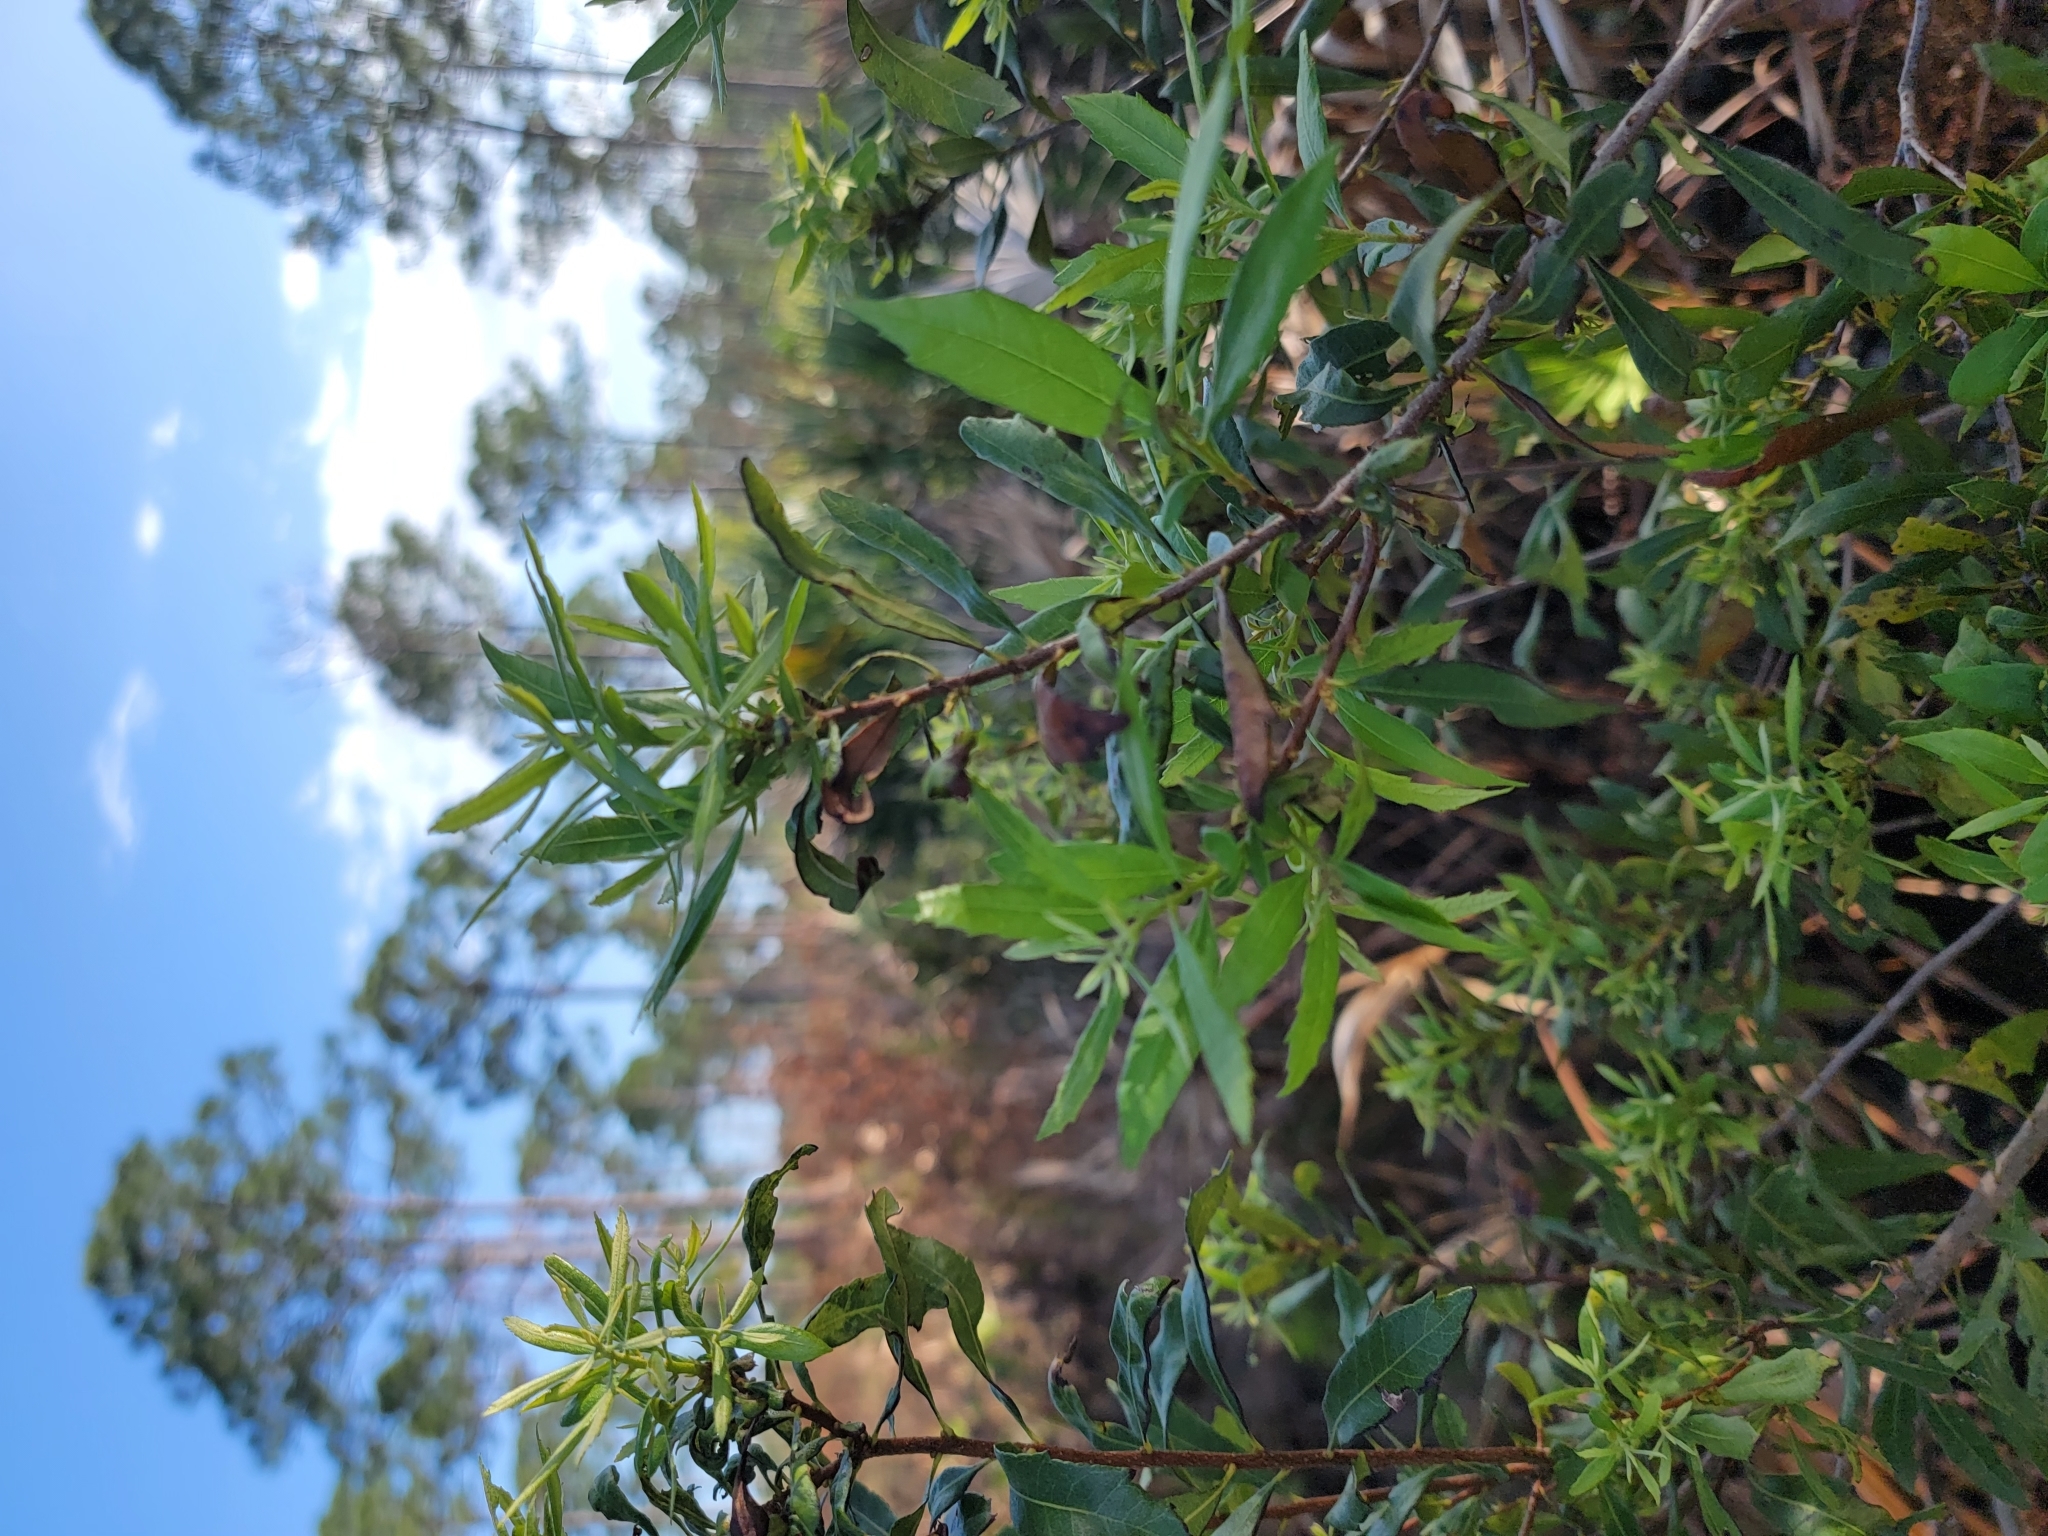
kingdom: Plantae
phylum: Tracheophyta
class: Magnoliopsida
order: Fagales
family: Myricaceae
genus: Morella
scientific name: Morella cerifera
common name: Wax myrtle
